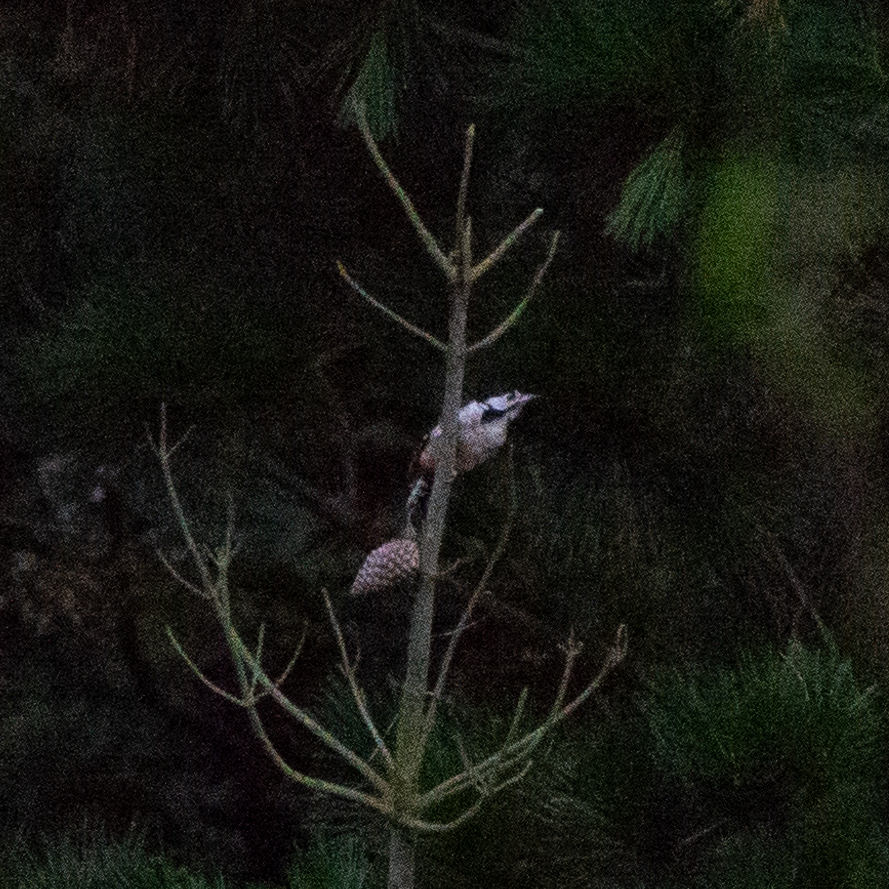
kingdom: Animalia
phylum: Chordata
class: Aves
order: Piciformes
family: Picidae
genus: Dendrocopos
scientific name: Dendrocopos major
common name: Great spotted woodpecker
